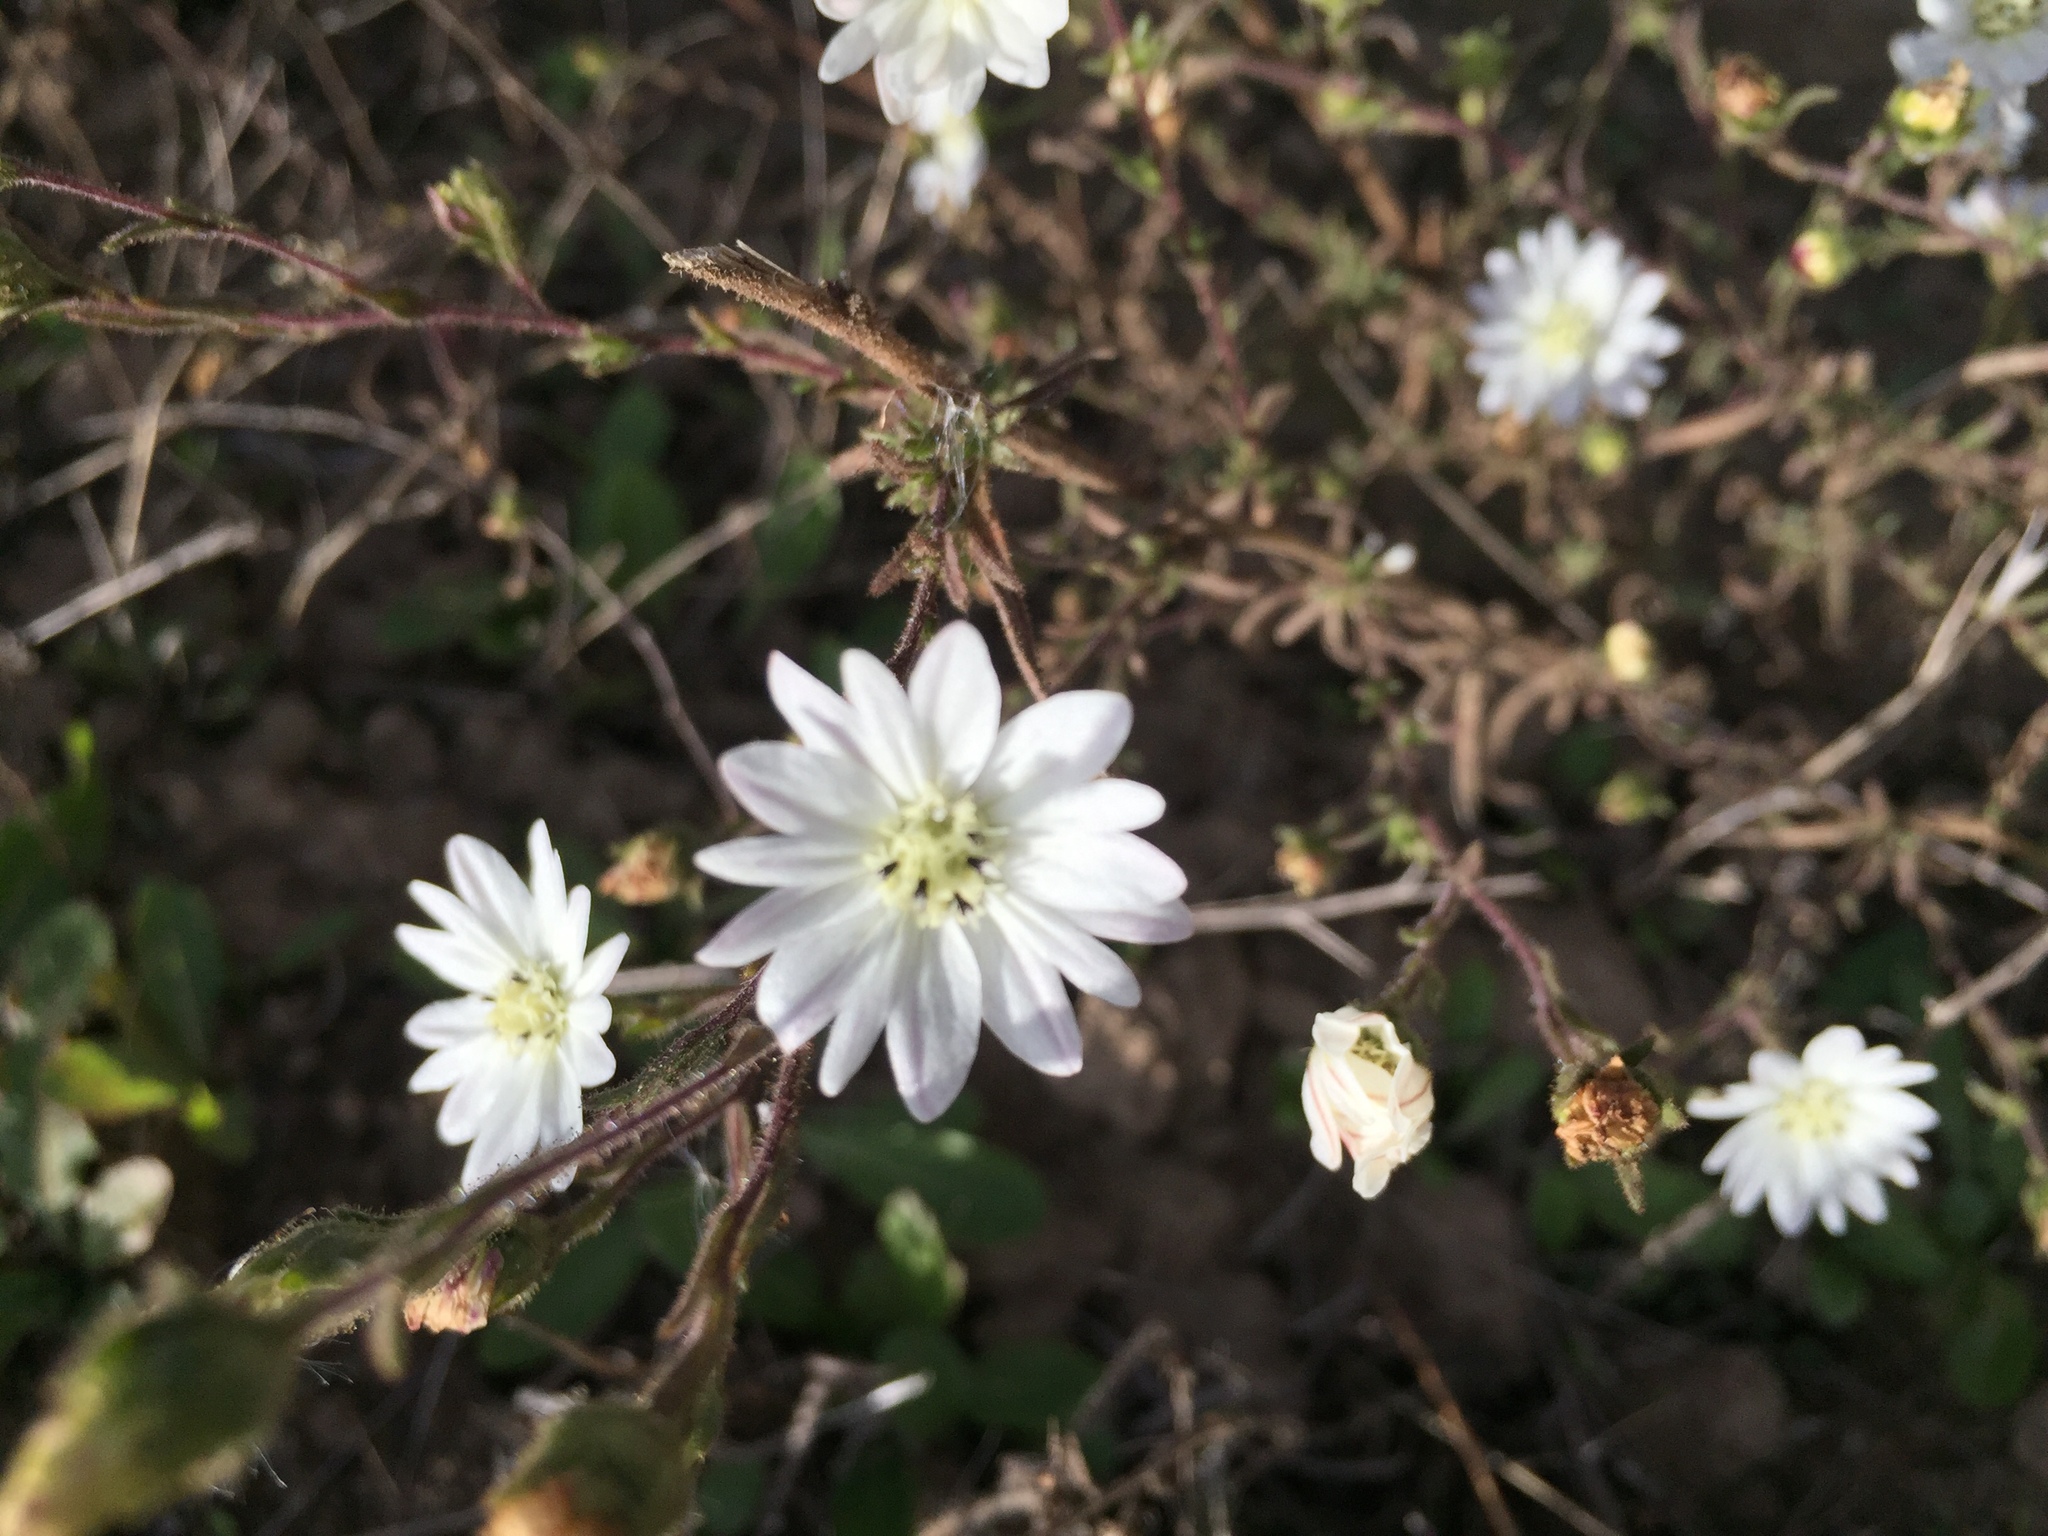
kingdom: Plantae
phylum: Tracheophyta
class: Magnoliopsida
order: Asterales
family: Asteraceae
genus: Hemizonia
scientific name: Hemizonia congesta
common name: Hayfield tarweed
